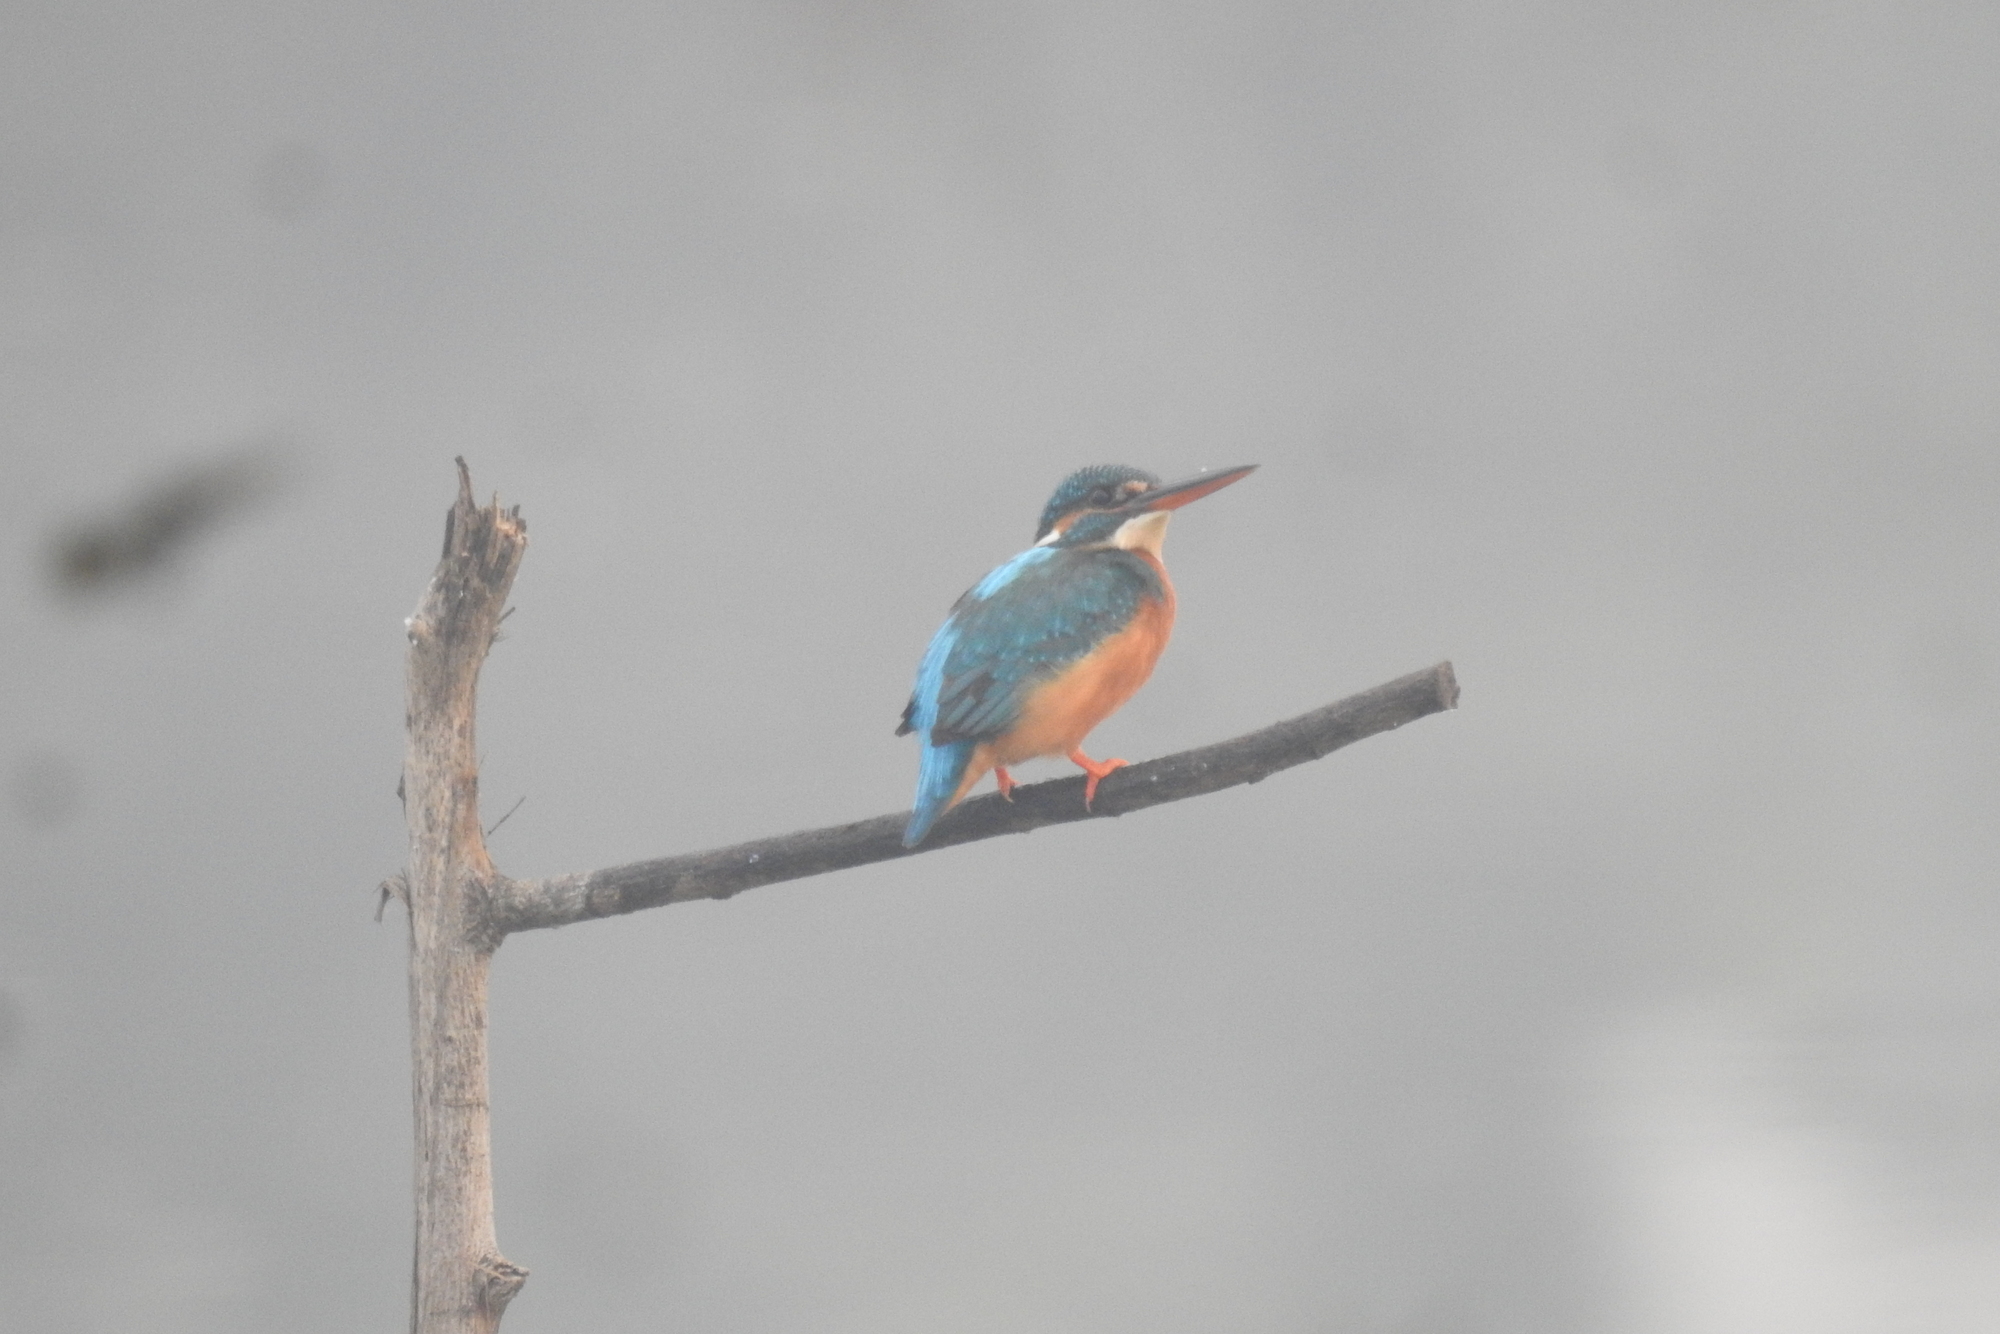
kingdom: Animalia
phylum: Chordata
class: Aves
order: Coraciiformes
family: Alcedinidae
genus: Alcedo
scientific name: Alcedo atthis
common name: Common kingfisher
